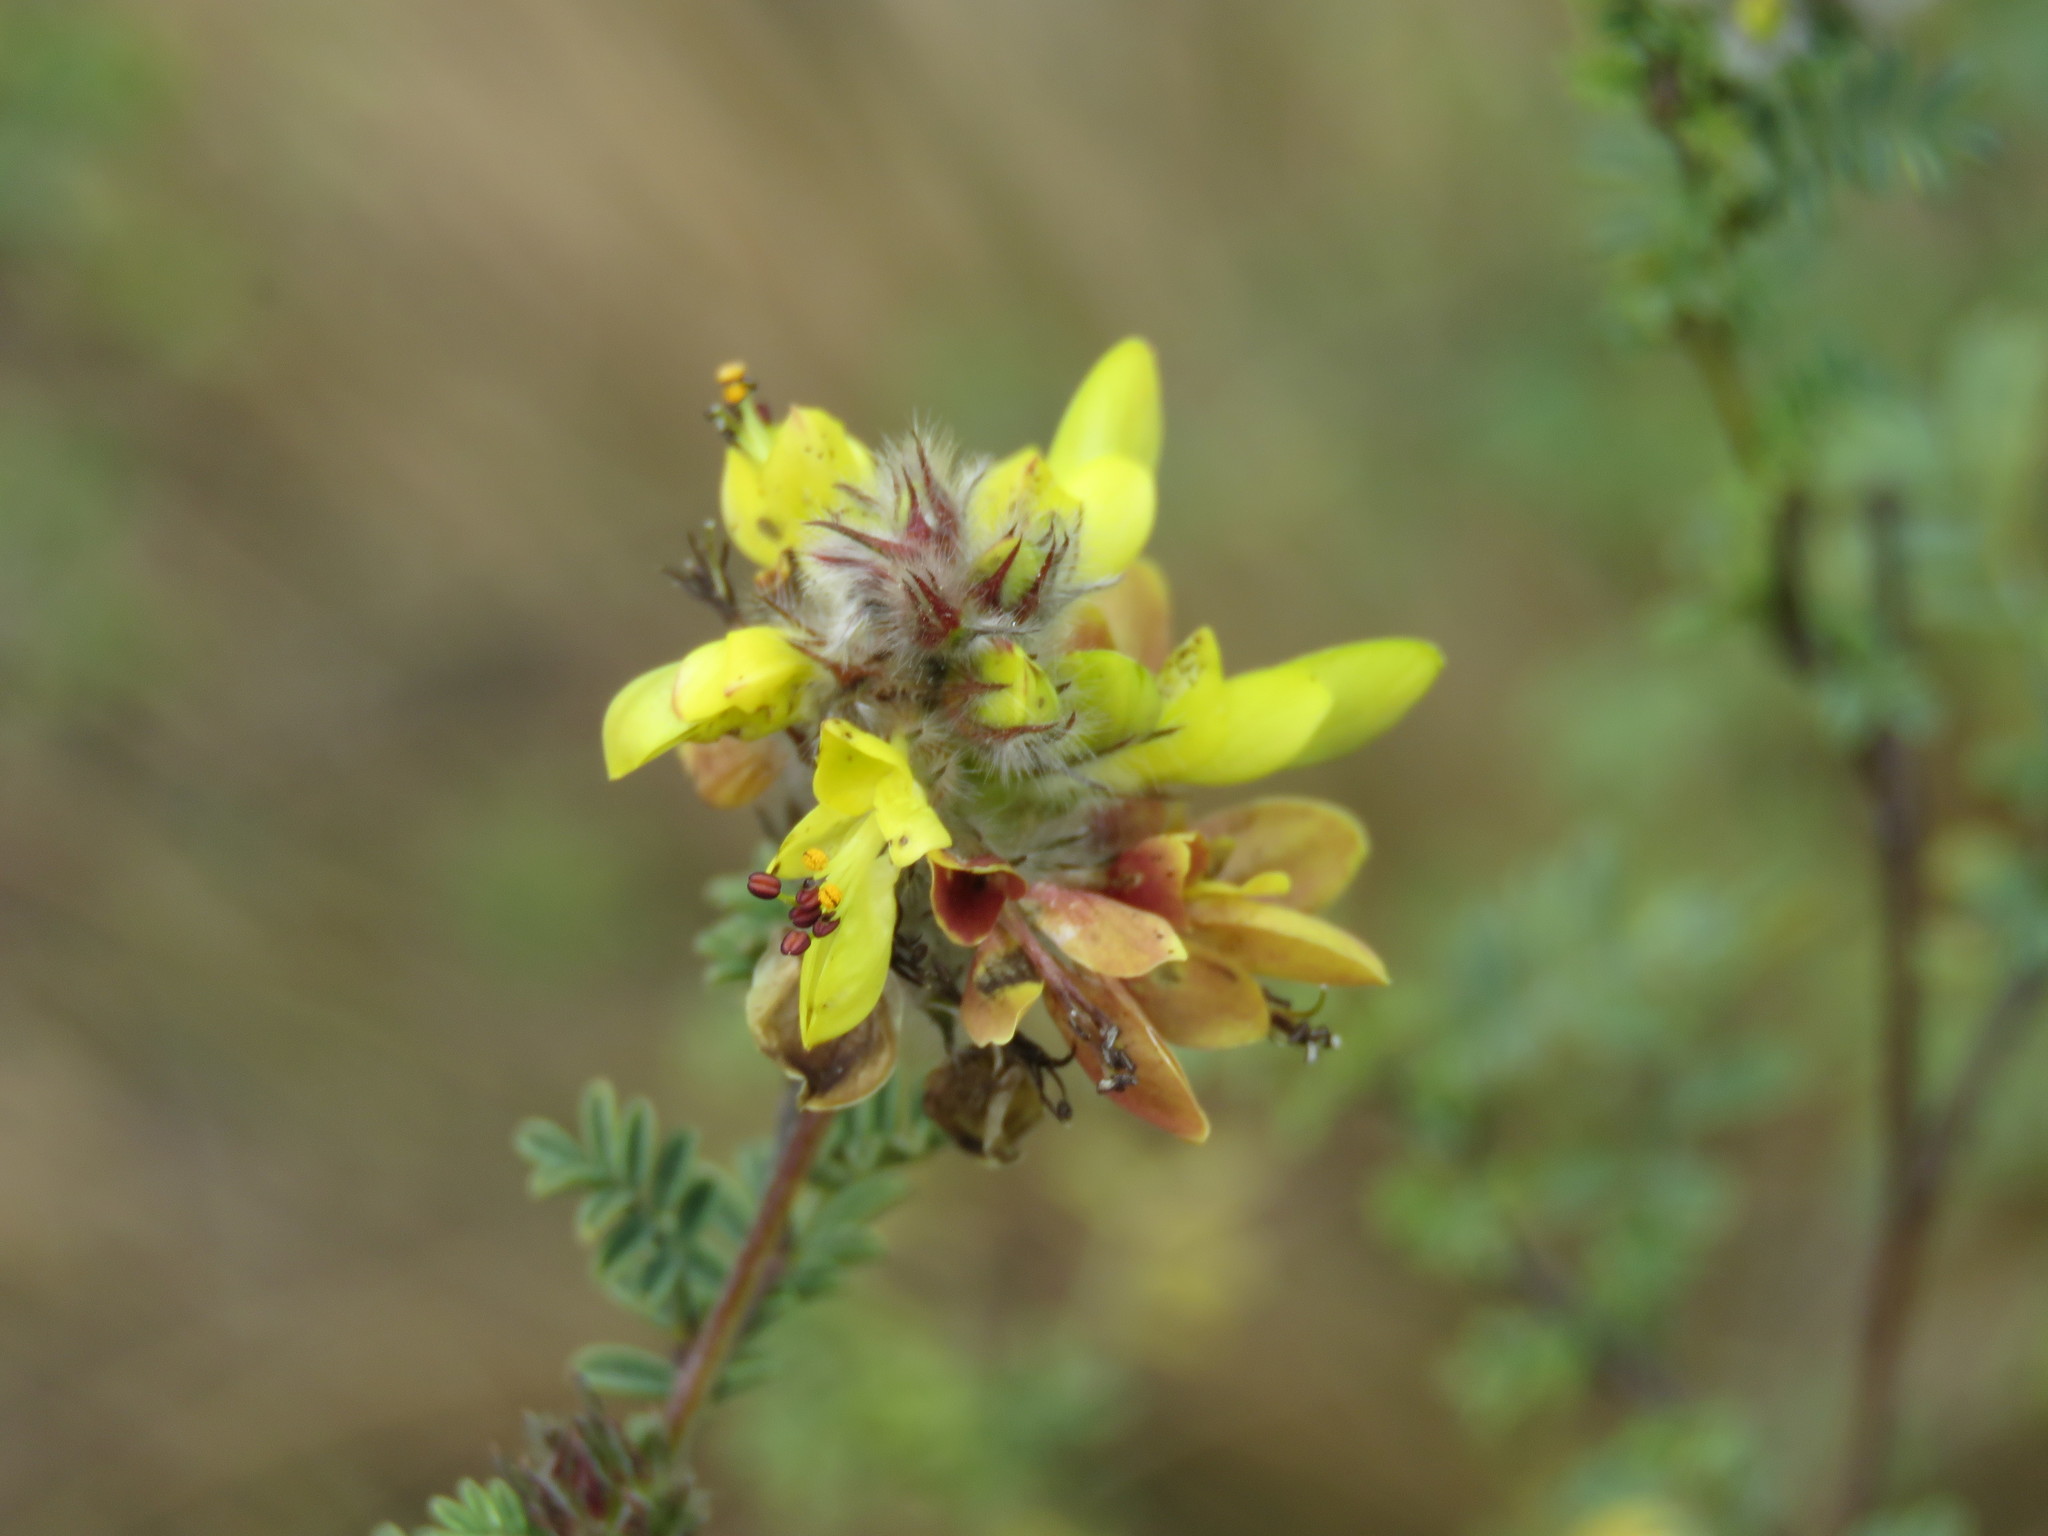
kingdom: Plantae
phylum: Tracheophyta
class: Magnoliopsida
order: Fabales
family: Fabaceae
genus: Dalea
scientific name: Dalea lutea
